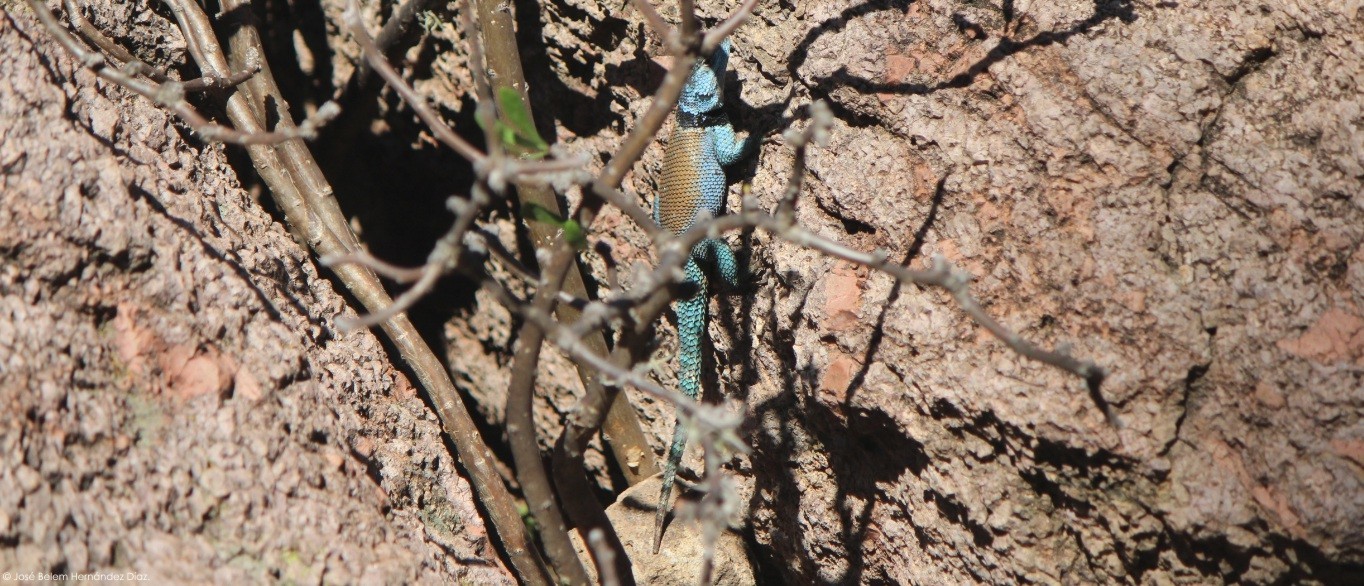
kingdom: Animalia
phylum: Chordata
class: Squamata
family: Phrynosomatidae
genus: Sceloporus
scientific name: Sceloporus minor
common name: Minor lizard
